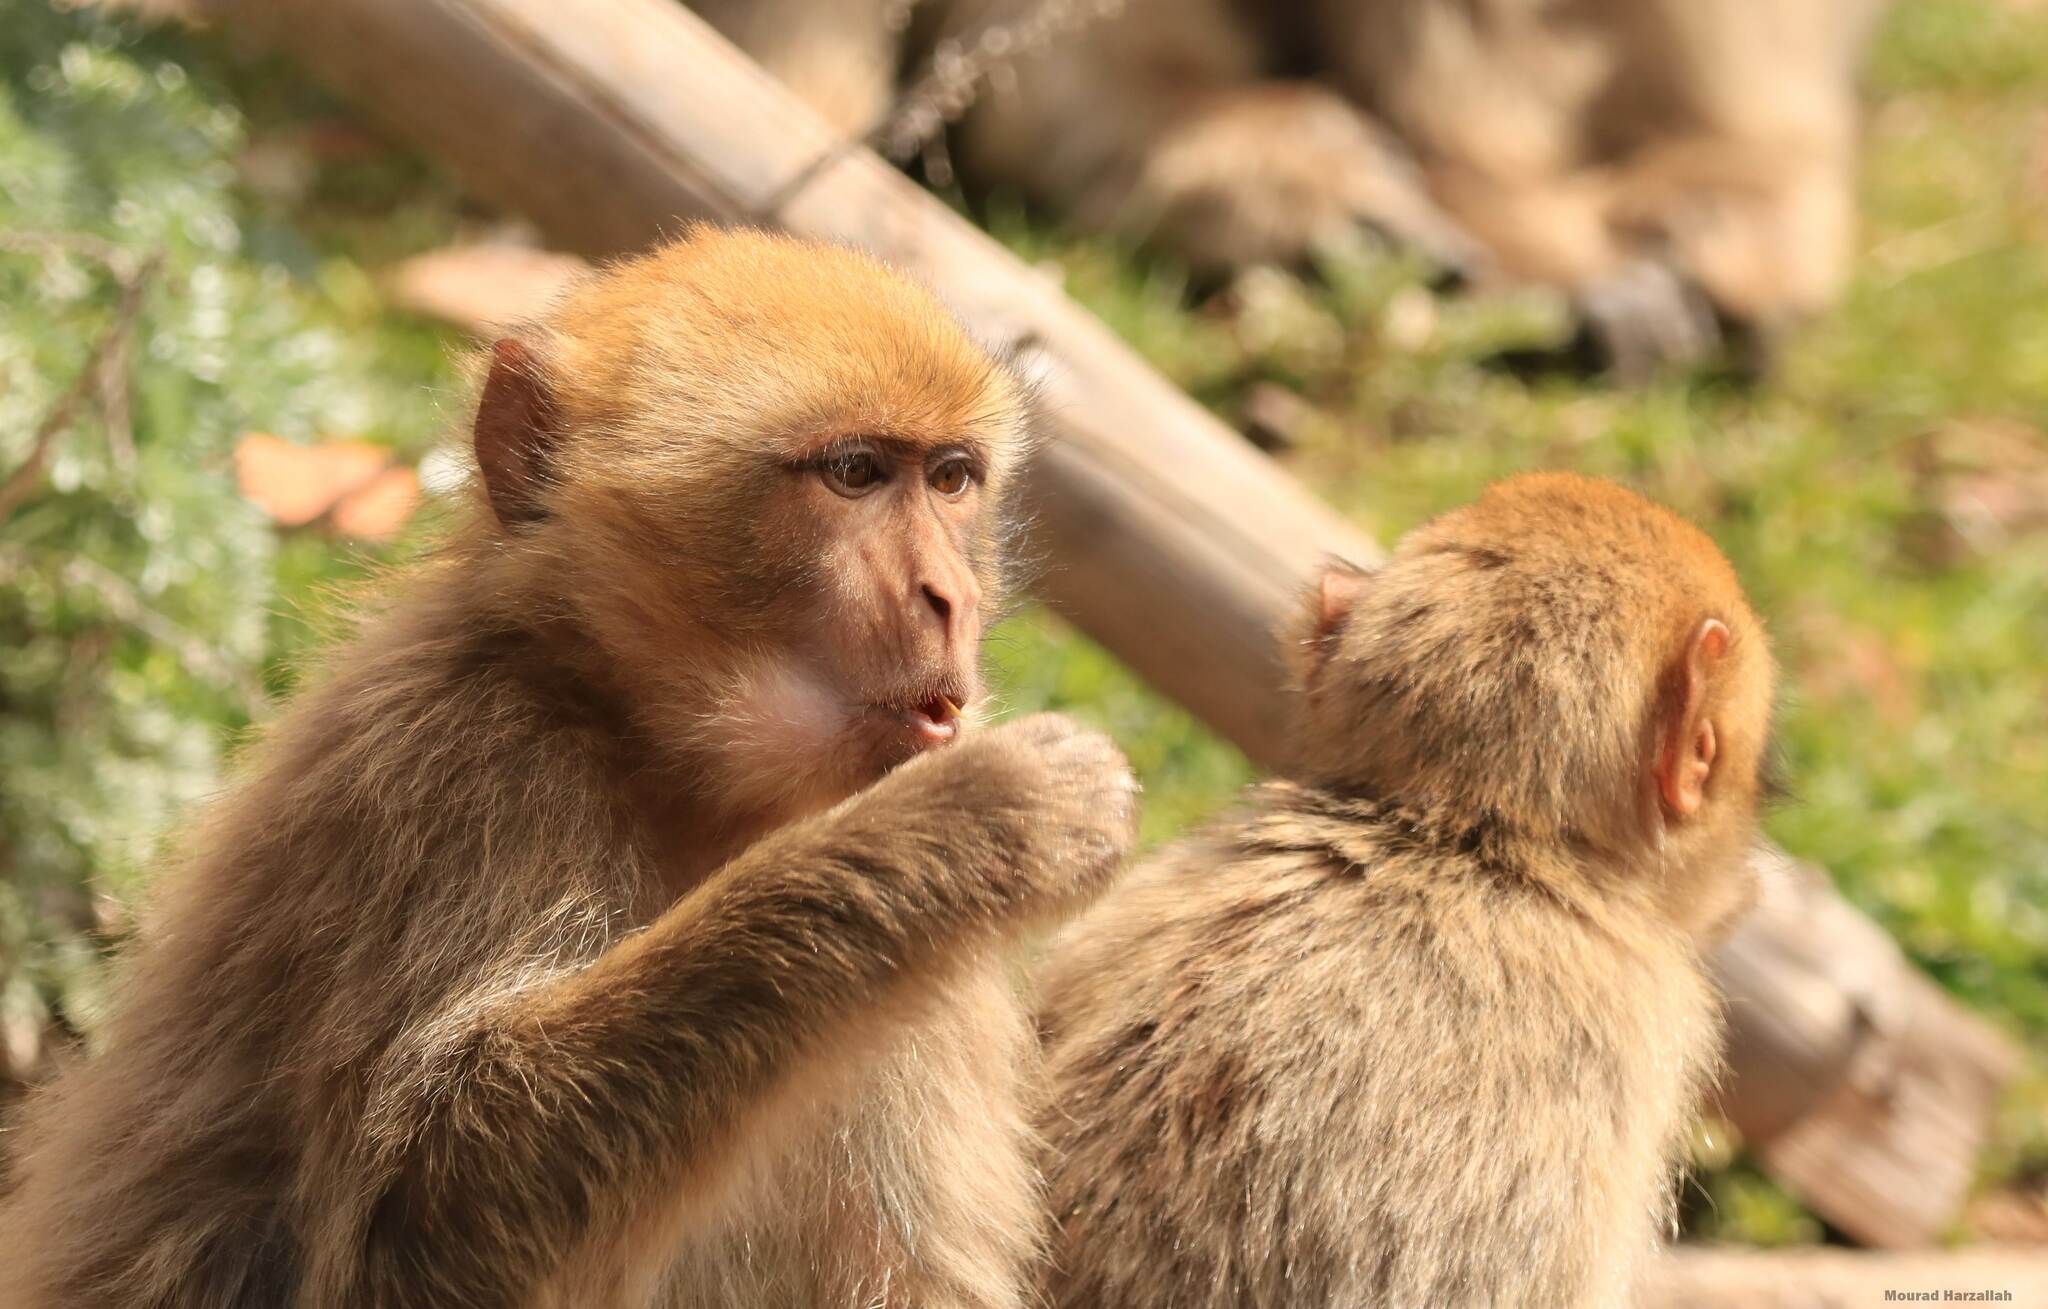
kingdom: Animalia
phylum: Chordata
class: Mammalia
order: Primates
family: Cercopithecidae
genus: Macaca
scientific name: Macaca sylvanus
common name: Barbary macaque
